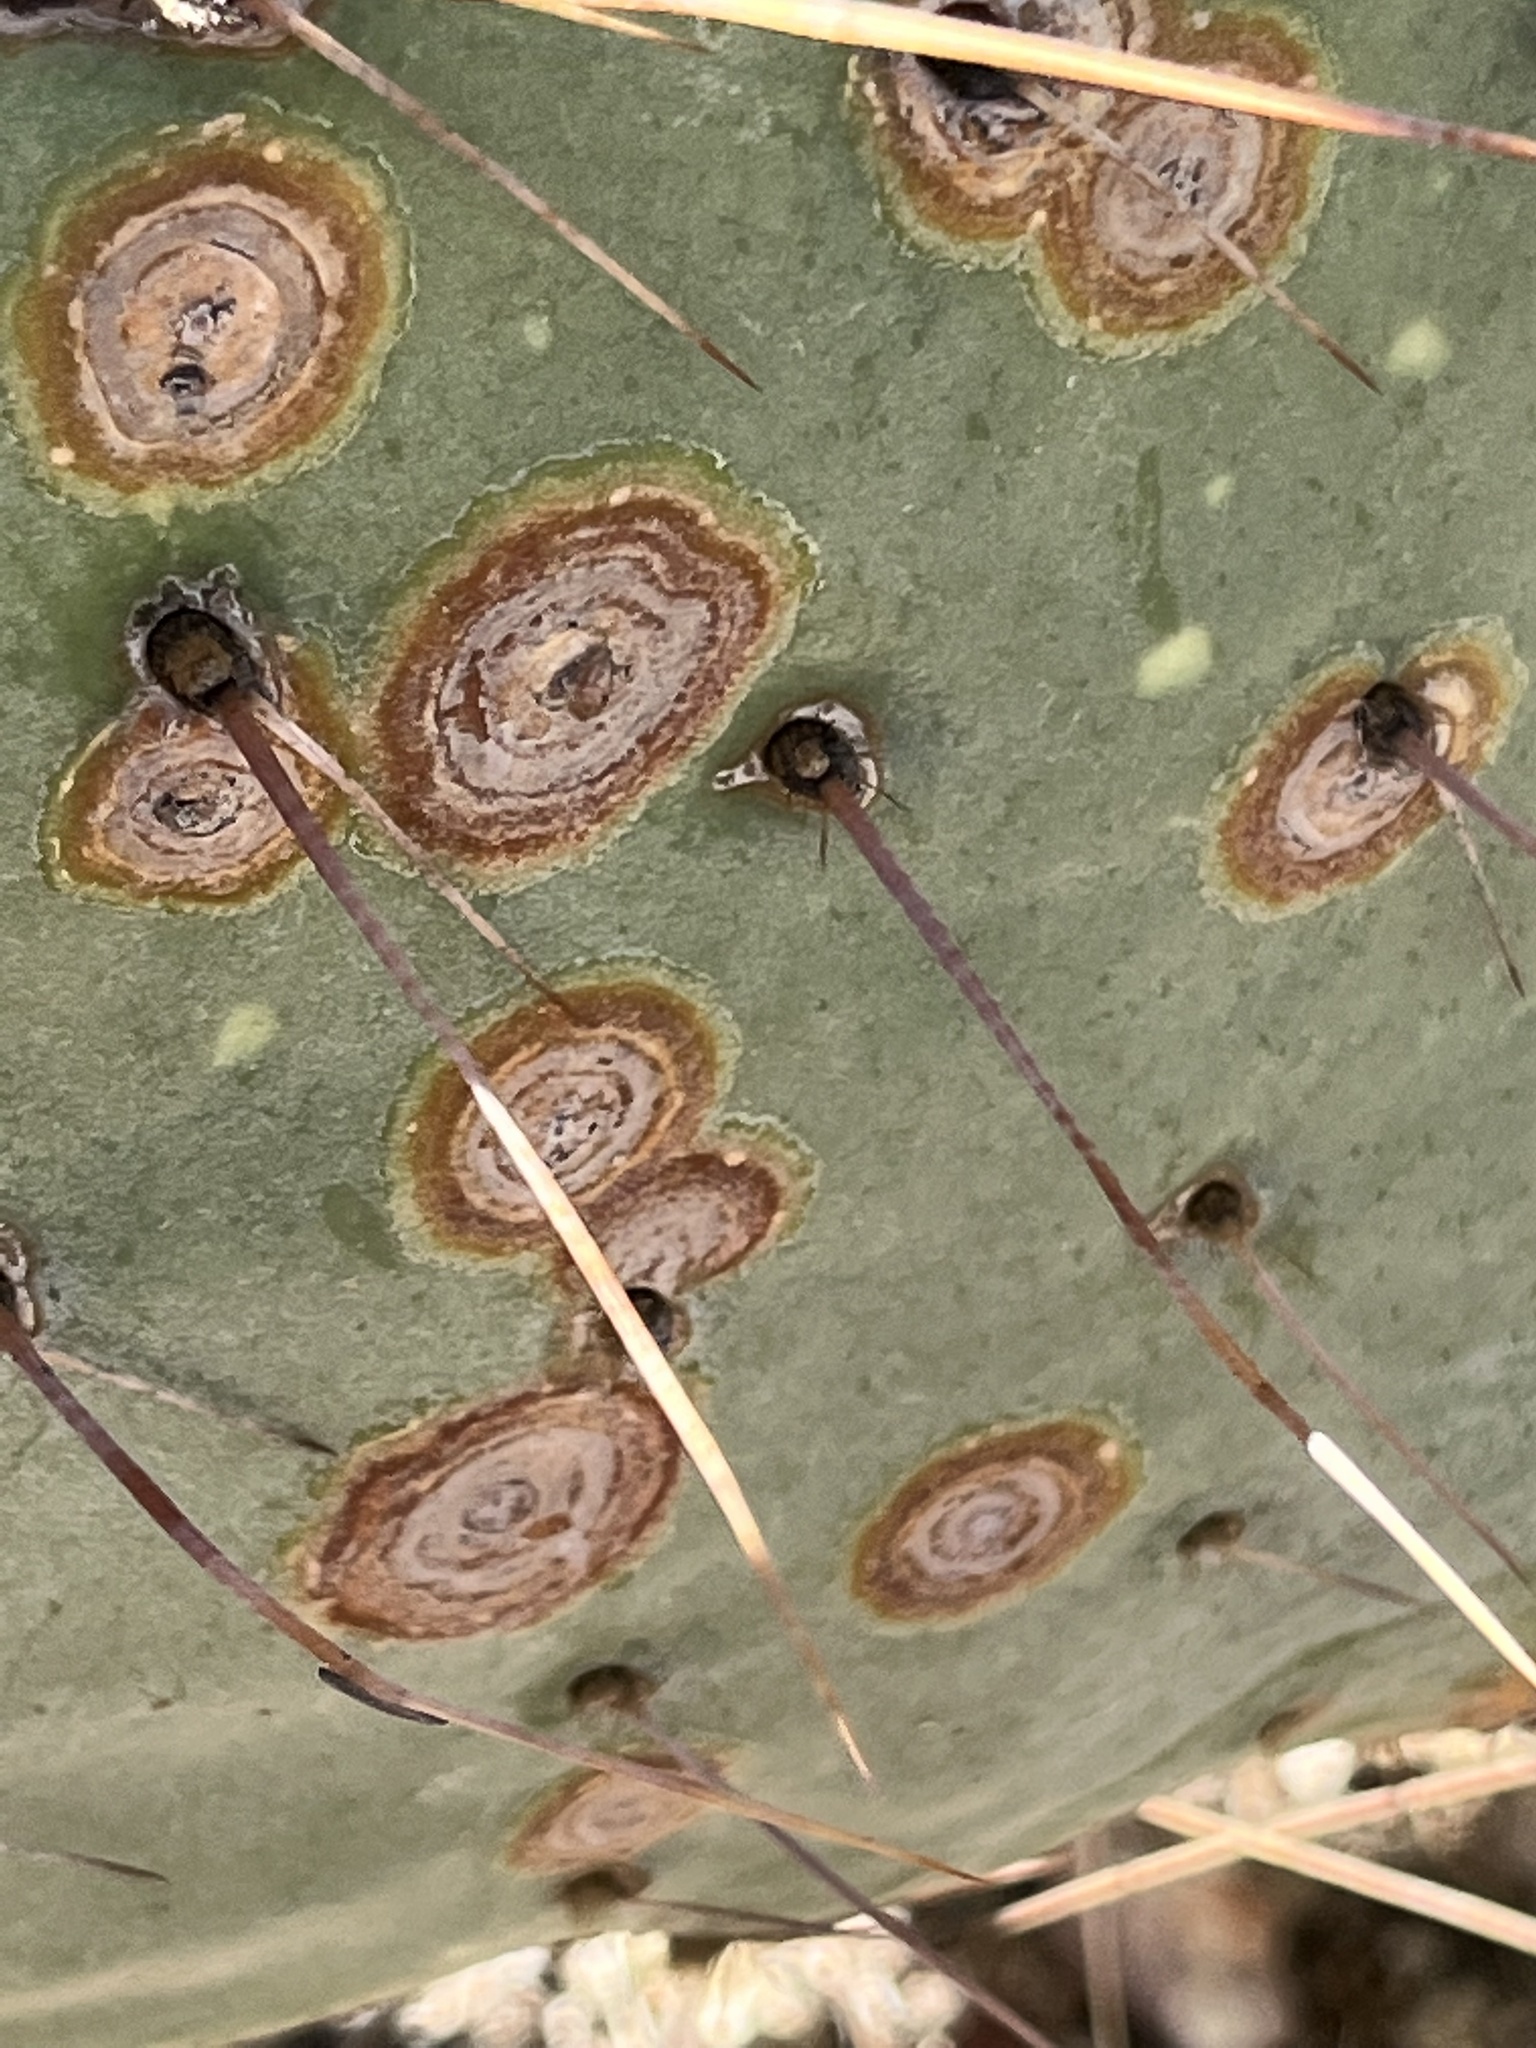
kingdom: Fungi
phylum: Ascomycota
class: Dothideomycetes
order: Botryosphaeriales
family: Phyllostictaceae
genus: Phyllosticta
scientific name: Phyllosticta concava
